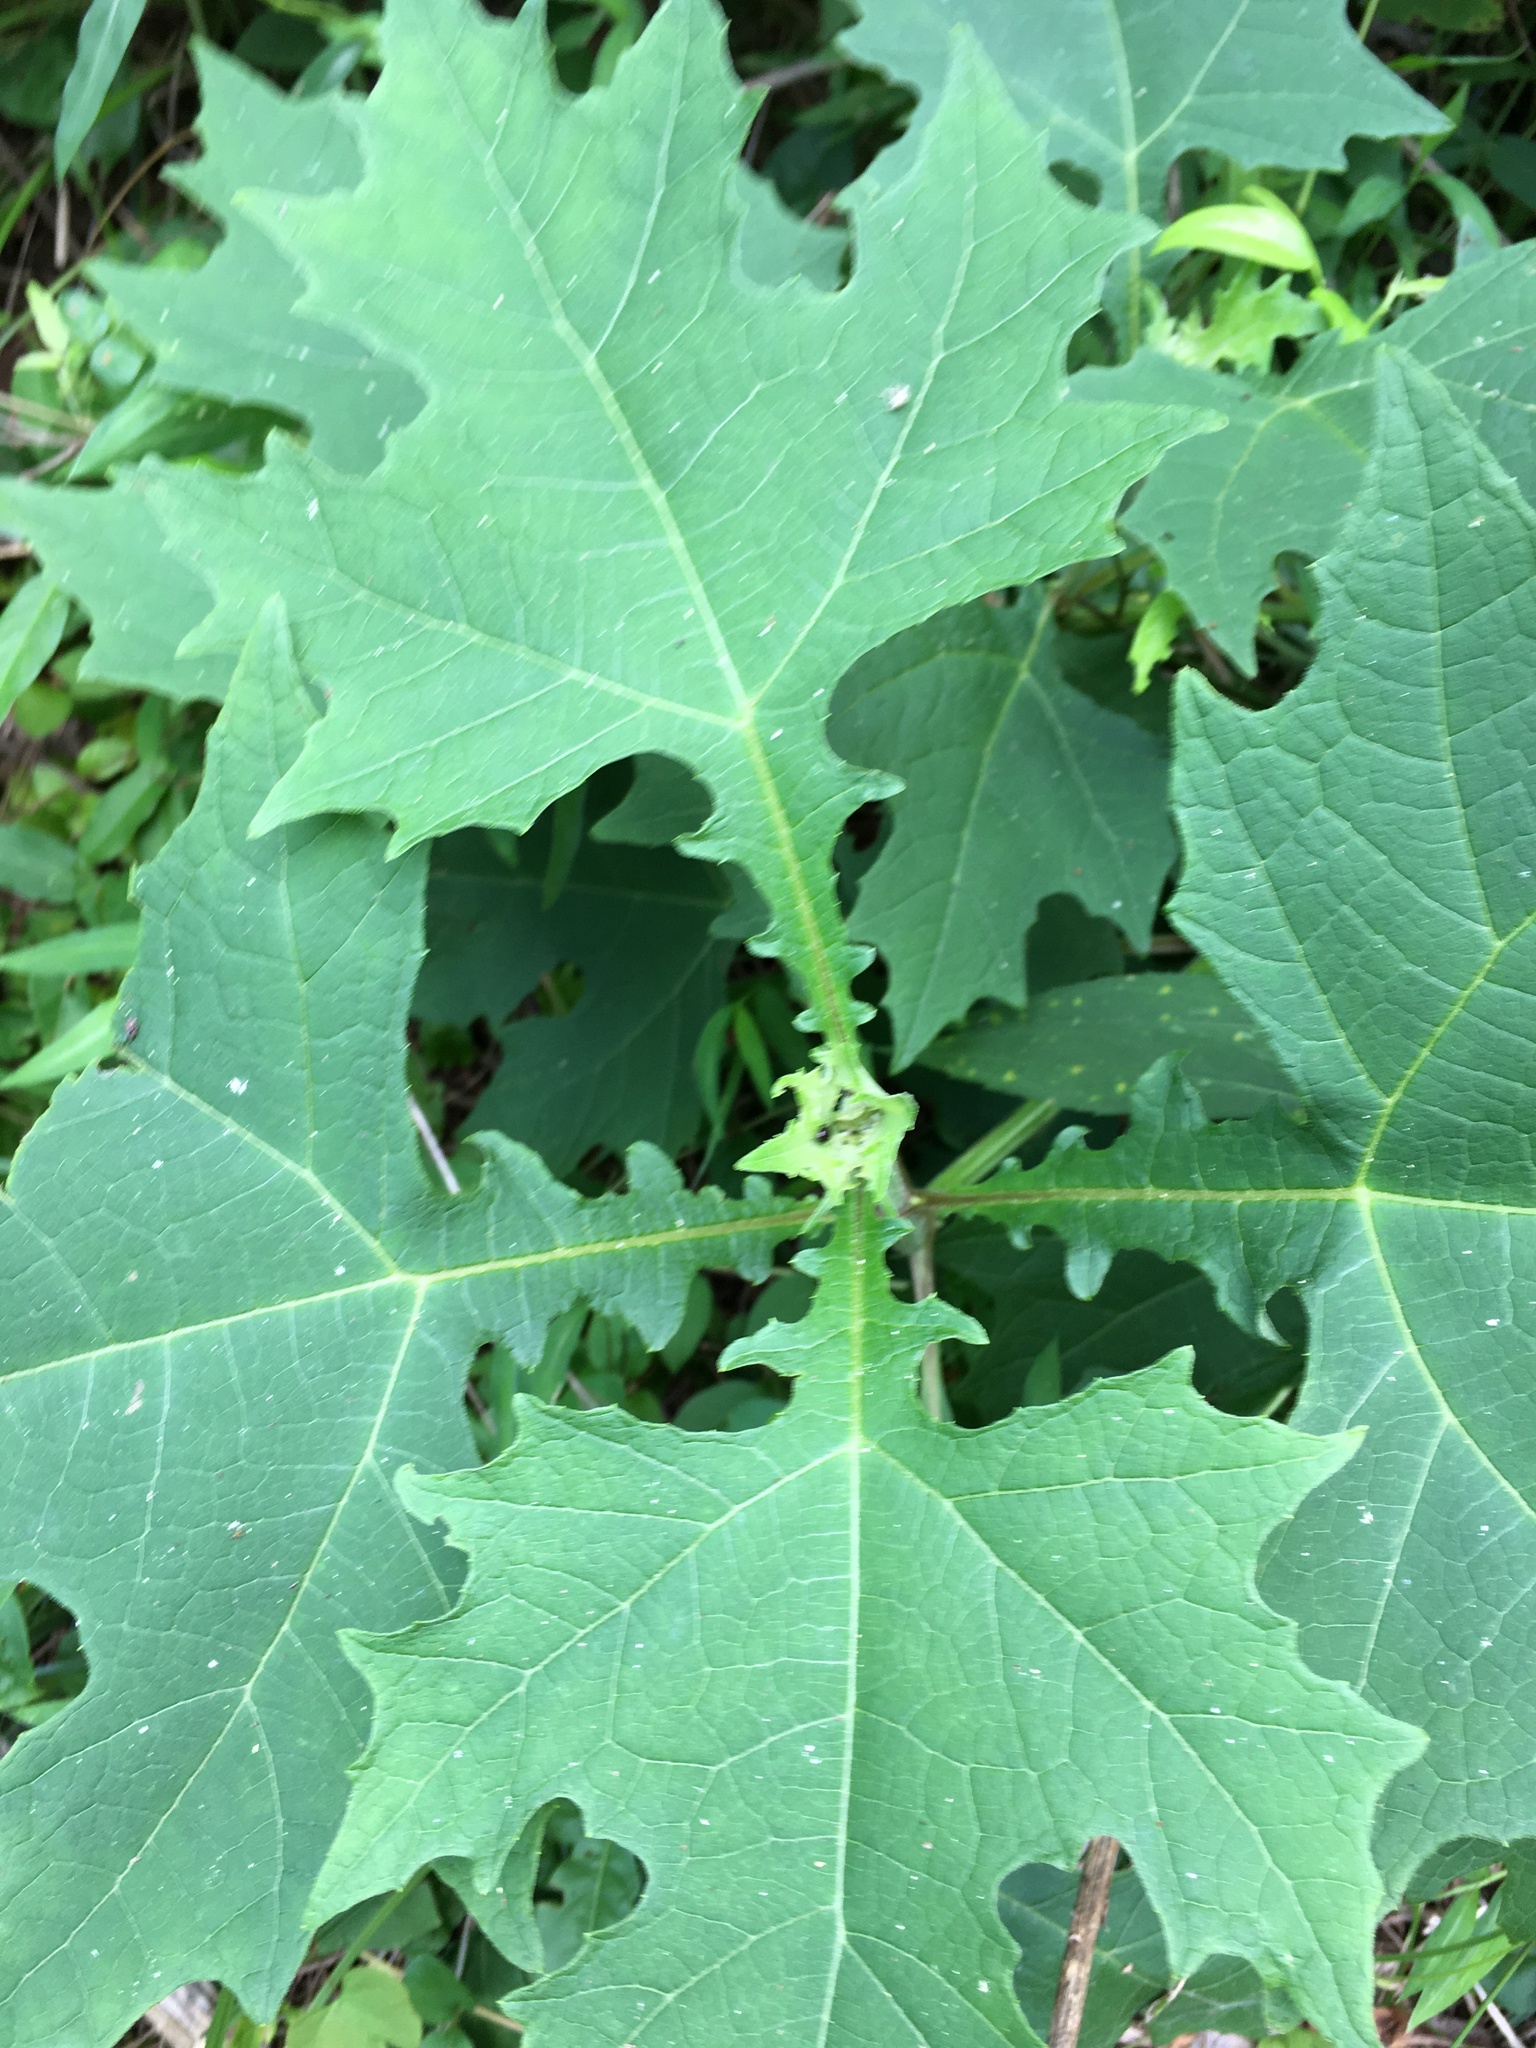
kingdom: Plantae
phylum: Tracheophyta
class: Magnoliopsida
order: Asterales
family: Asteraceae
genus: Smallanthus
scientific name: Smallanthus uvedalia
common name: Bear's-foot
